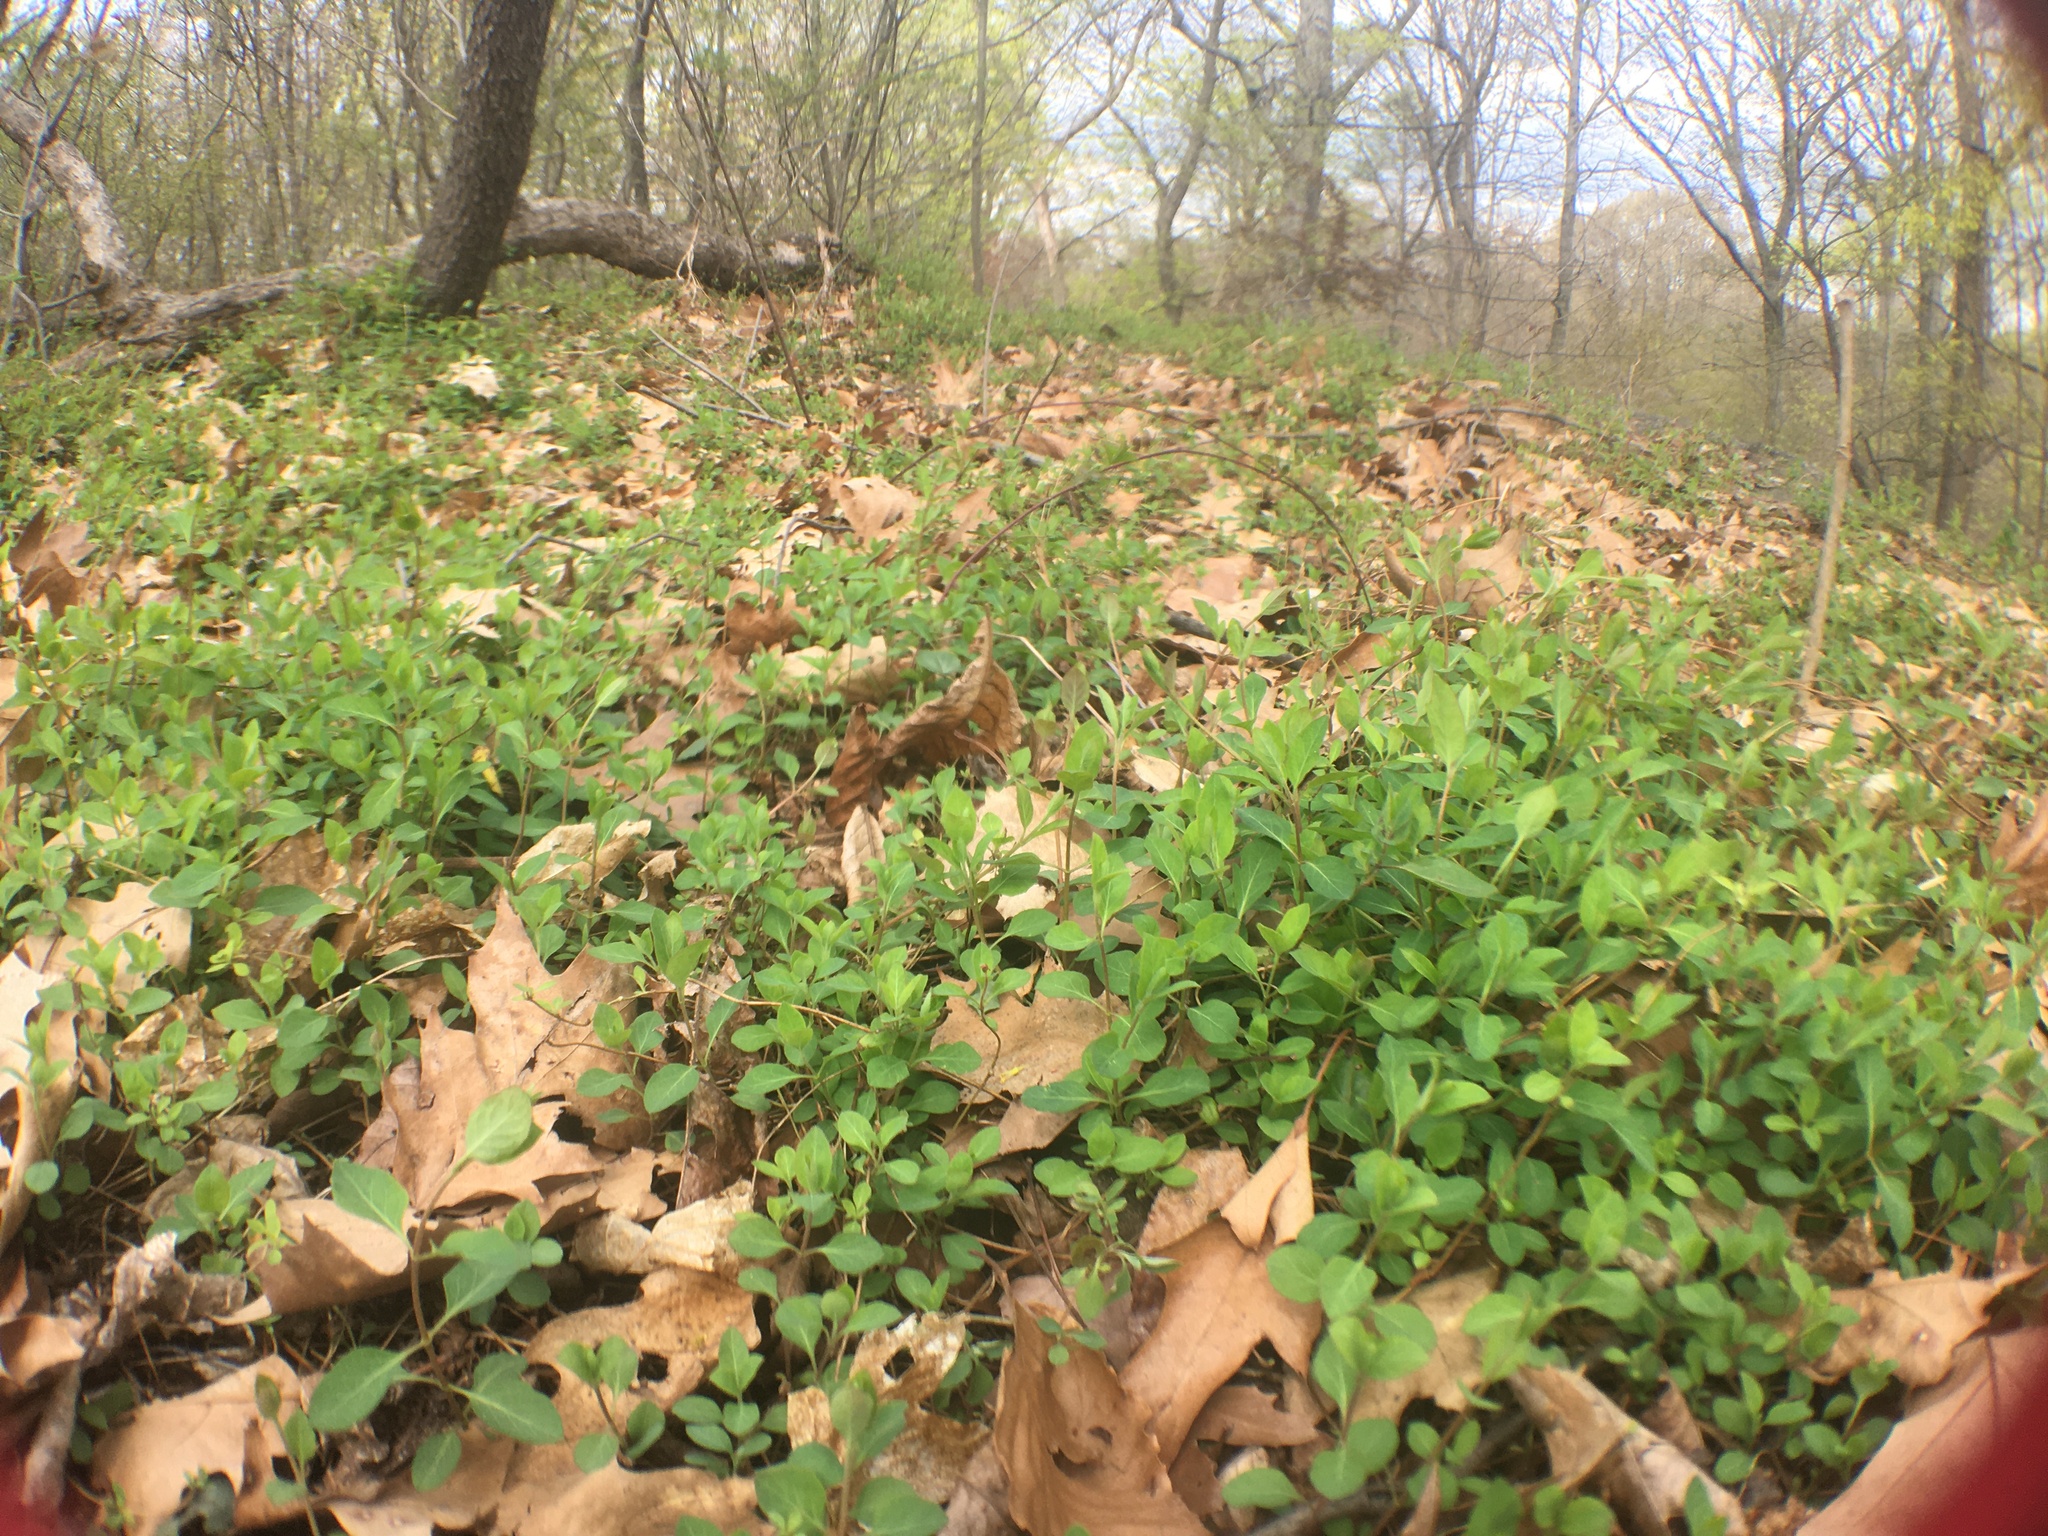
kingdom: Plantae
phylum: Tracheophyta
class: Magnoliopsida
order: Dipsacales
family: Caprifoliaceae
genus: Lonicera
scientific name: Lonicera japonica
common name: Japanese honeysuckle
